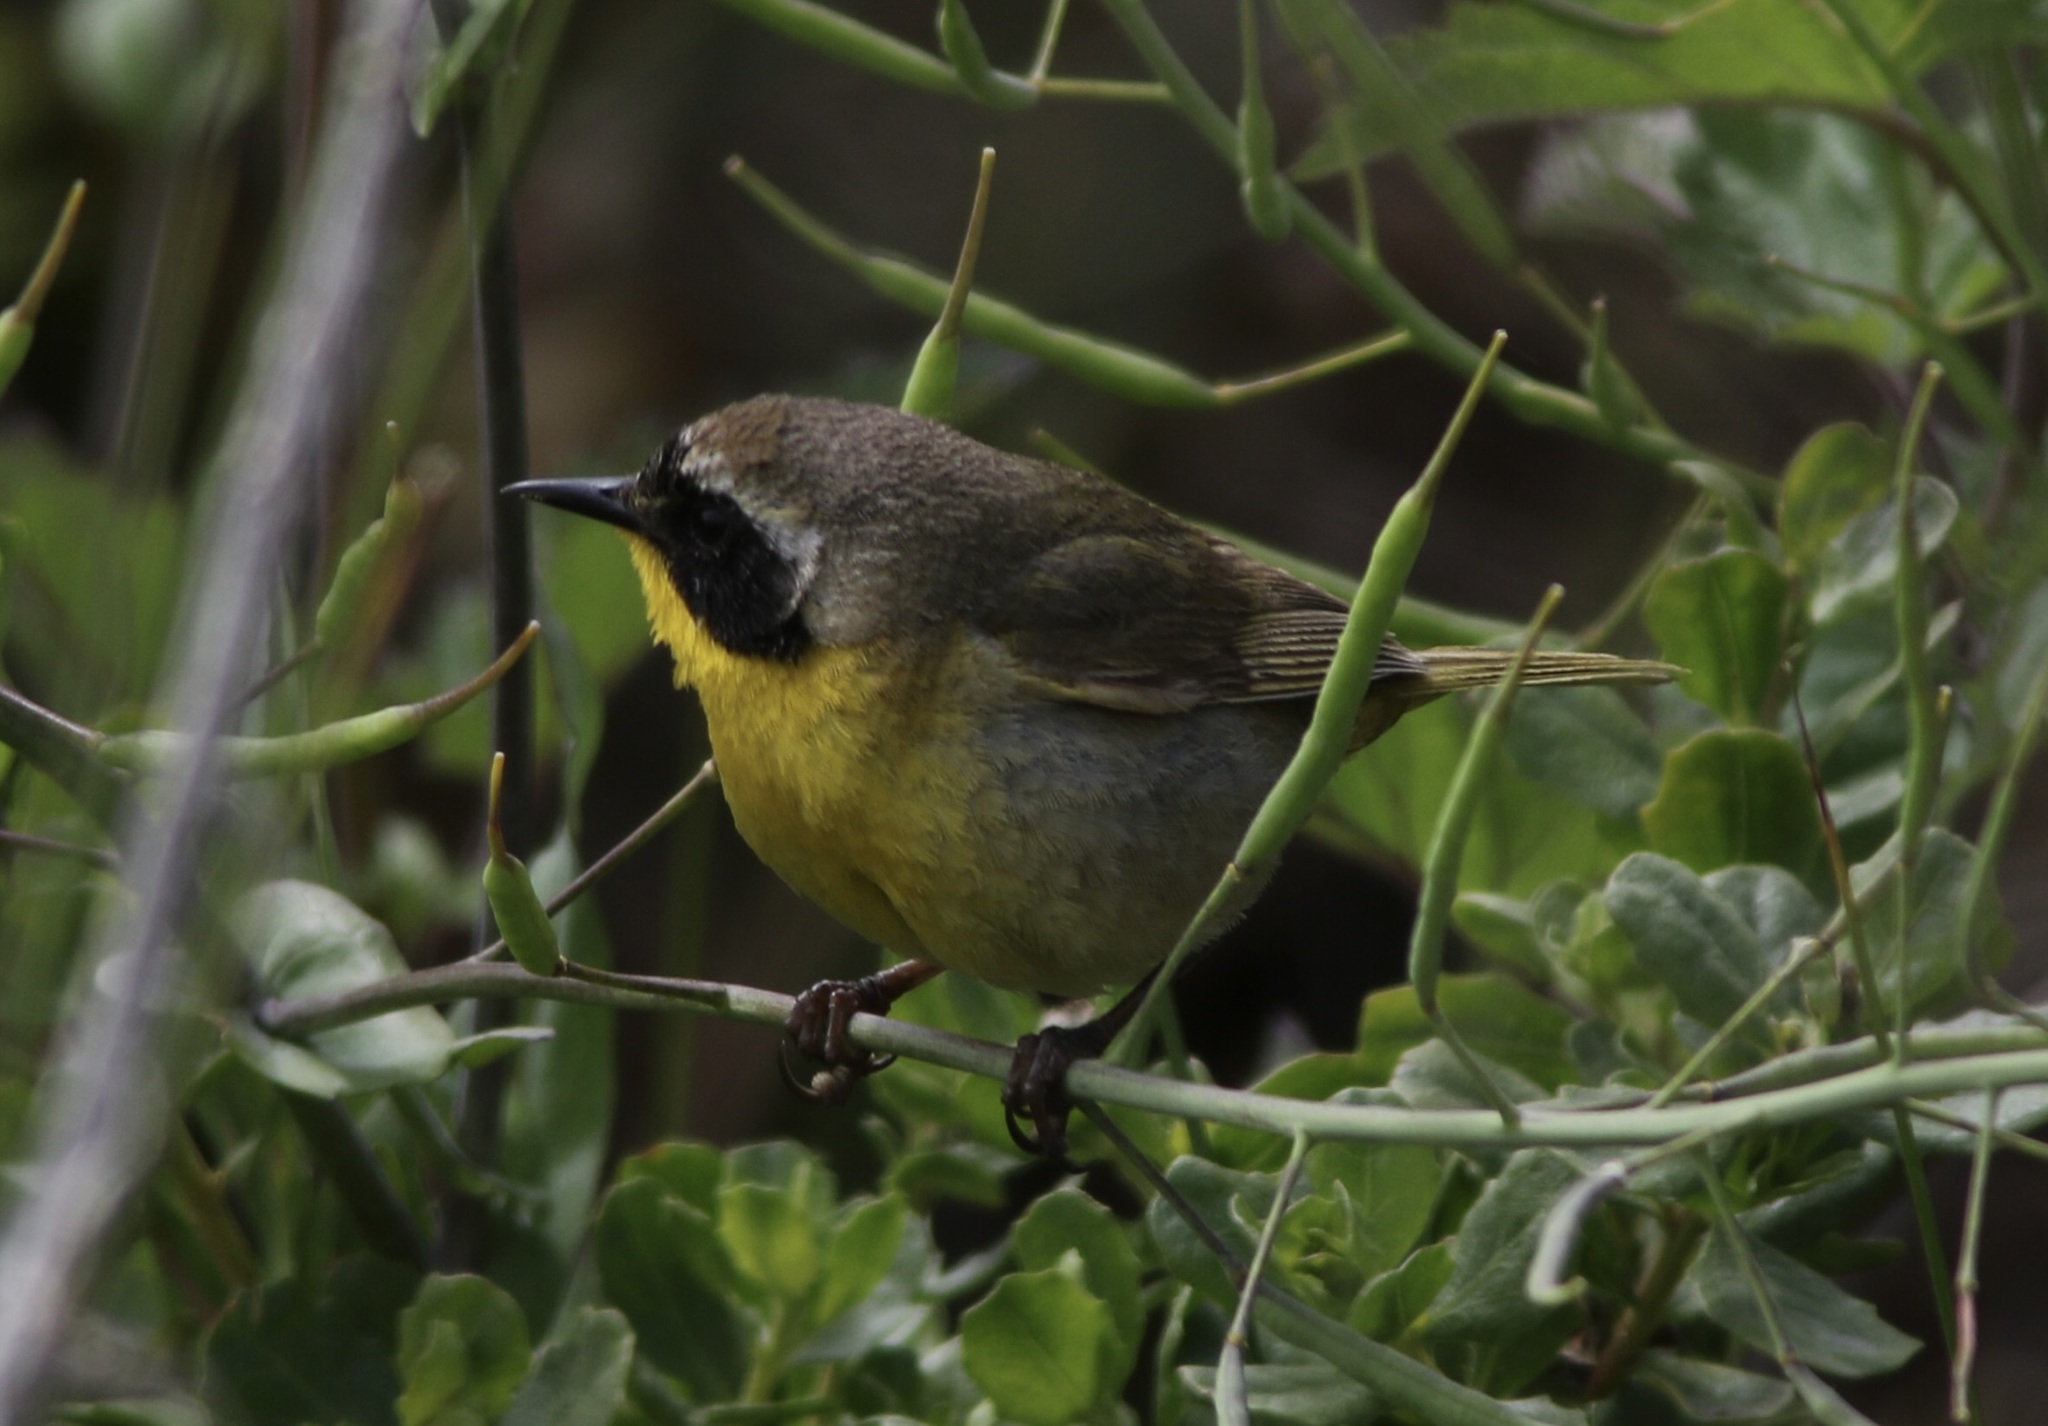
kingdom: Animalia
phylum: Chordata
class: Aves
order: Passeriformes
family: Parulidae
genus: Geothlypis
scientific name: Geothlypis trichas
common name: Common yellowthroat
